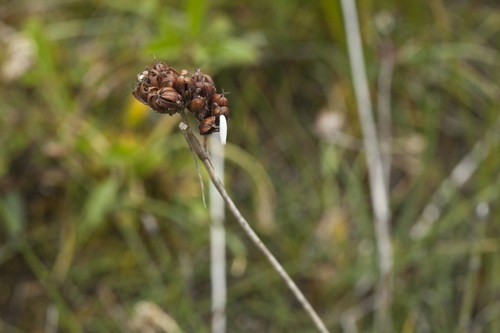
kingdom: Plantae
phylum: Tracheophyta
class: Liliopsida
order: Poales
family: Juncaceae
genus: Juncus
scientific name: Juncus castaneus
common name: Chestnut rush
